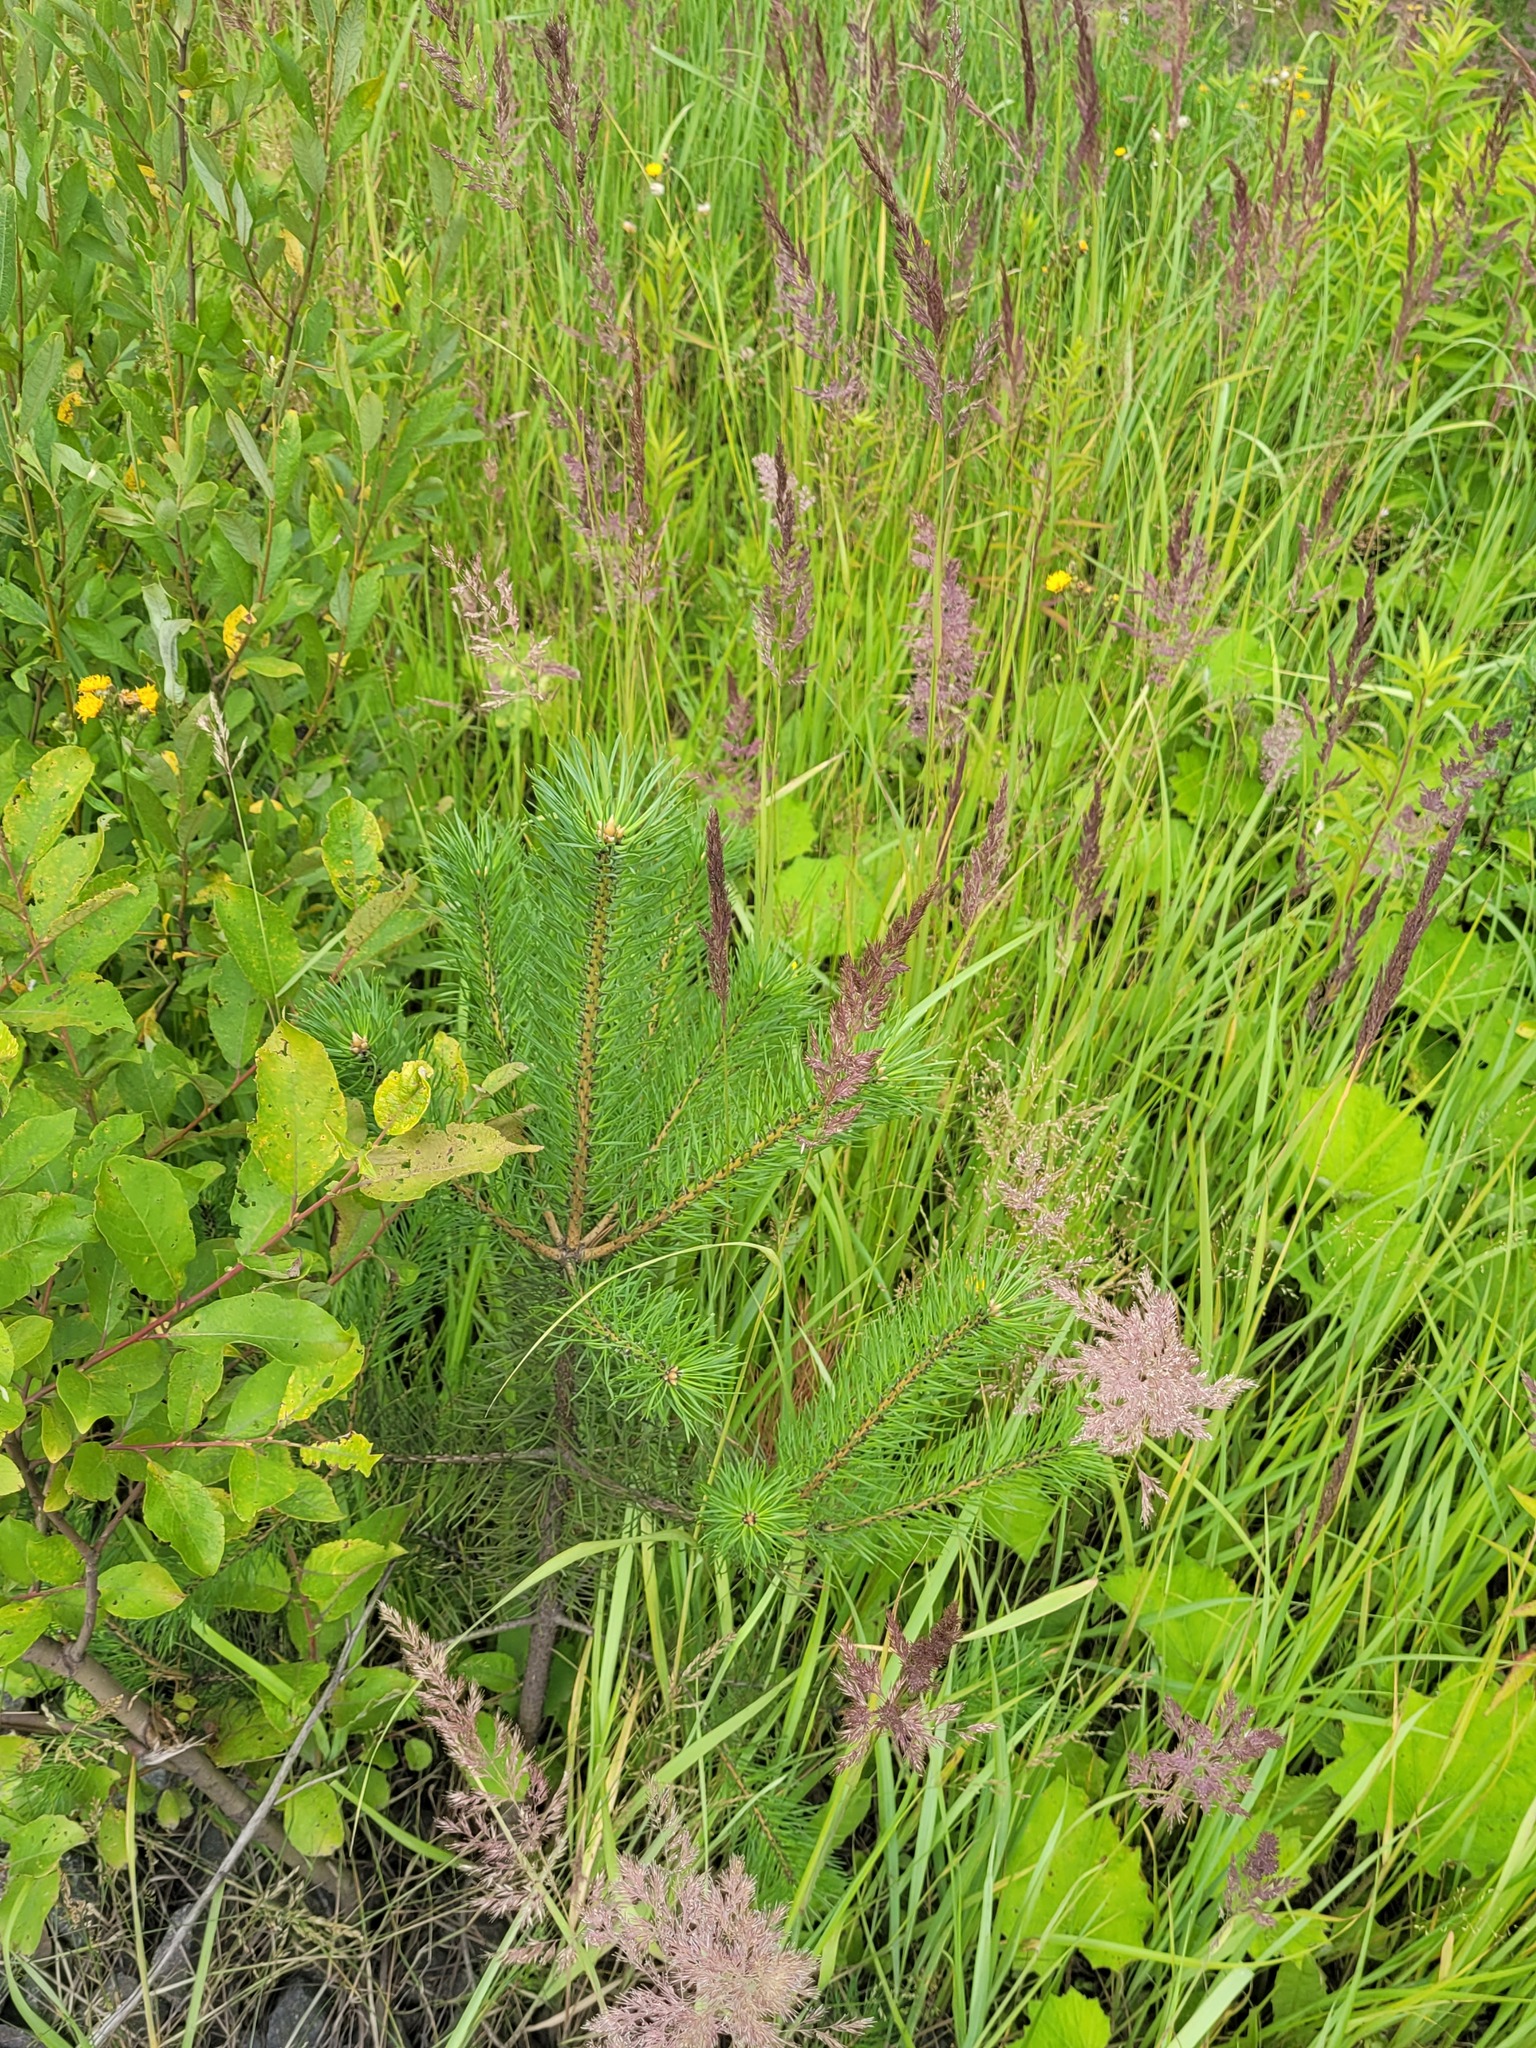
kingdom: Plantae
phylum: Tracheophyta
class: Pinopsida
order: Pinales
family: Pinaceae
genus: Pinus
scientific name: Pinus sylvestris
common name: Scots pine
